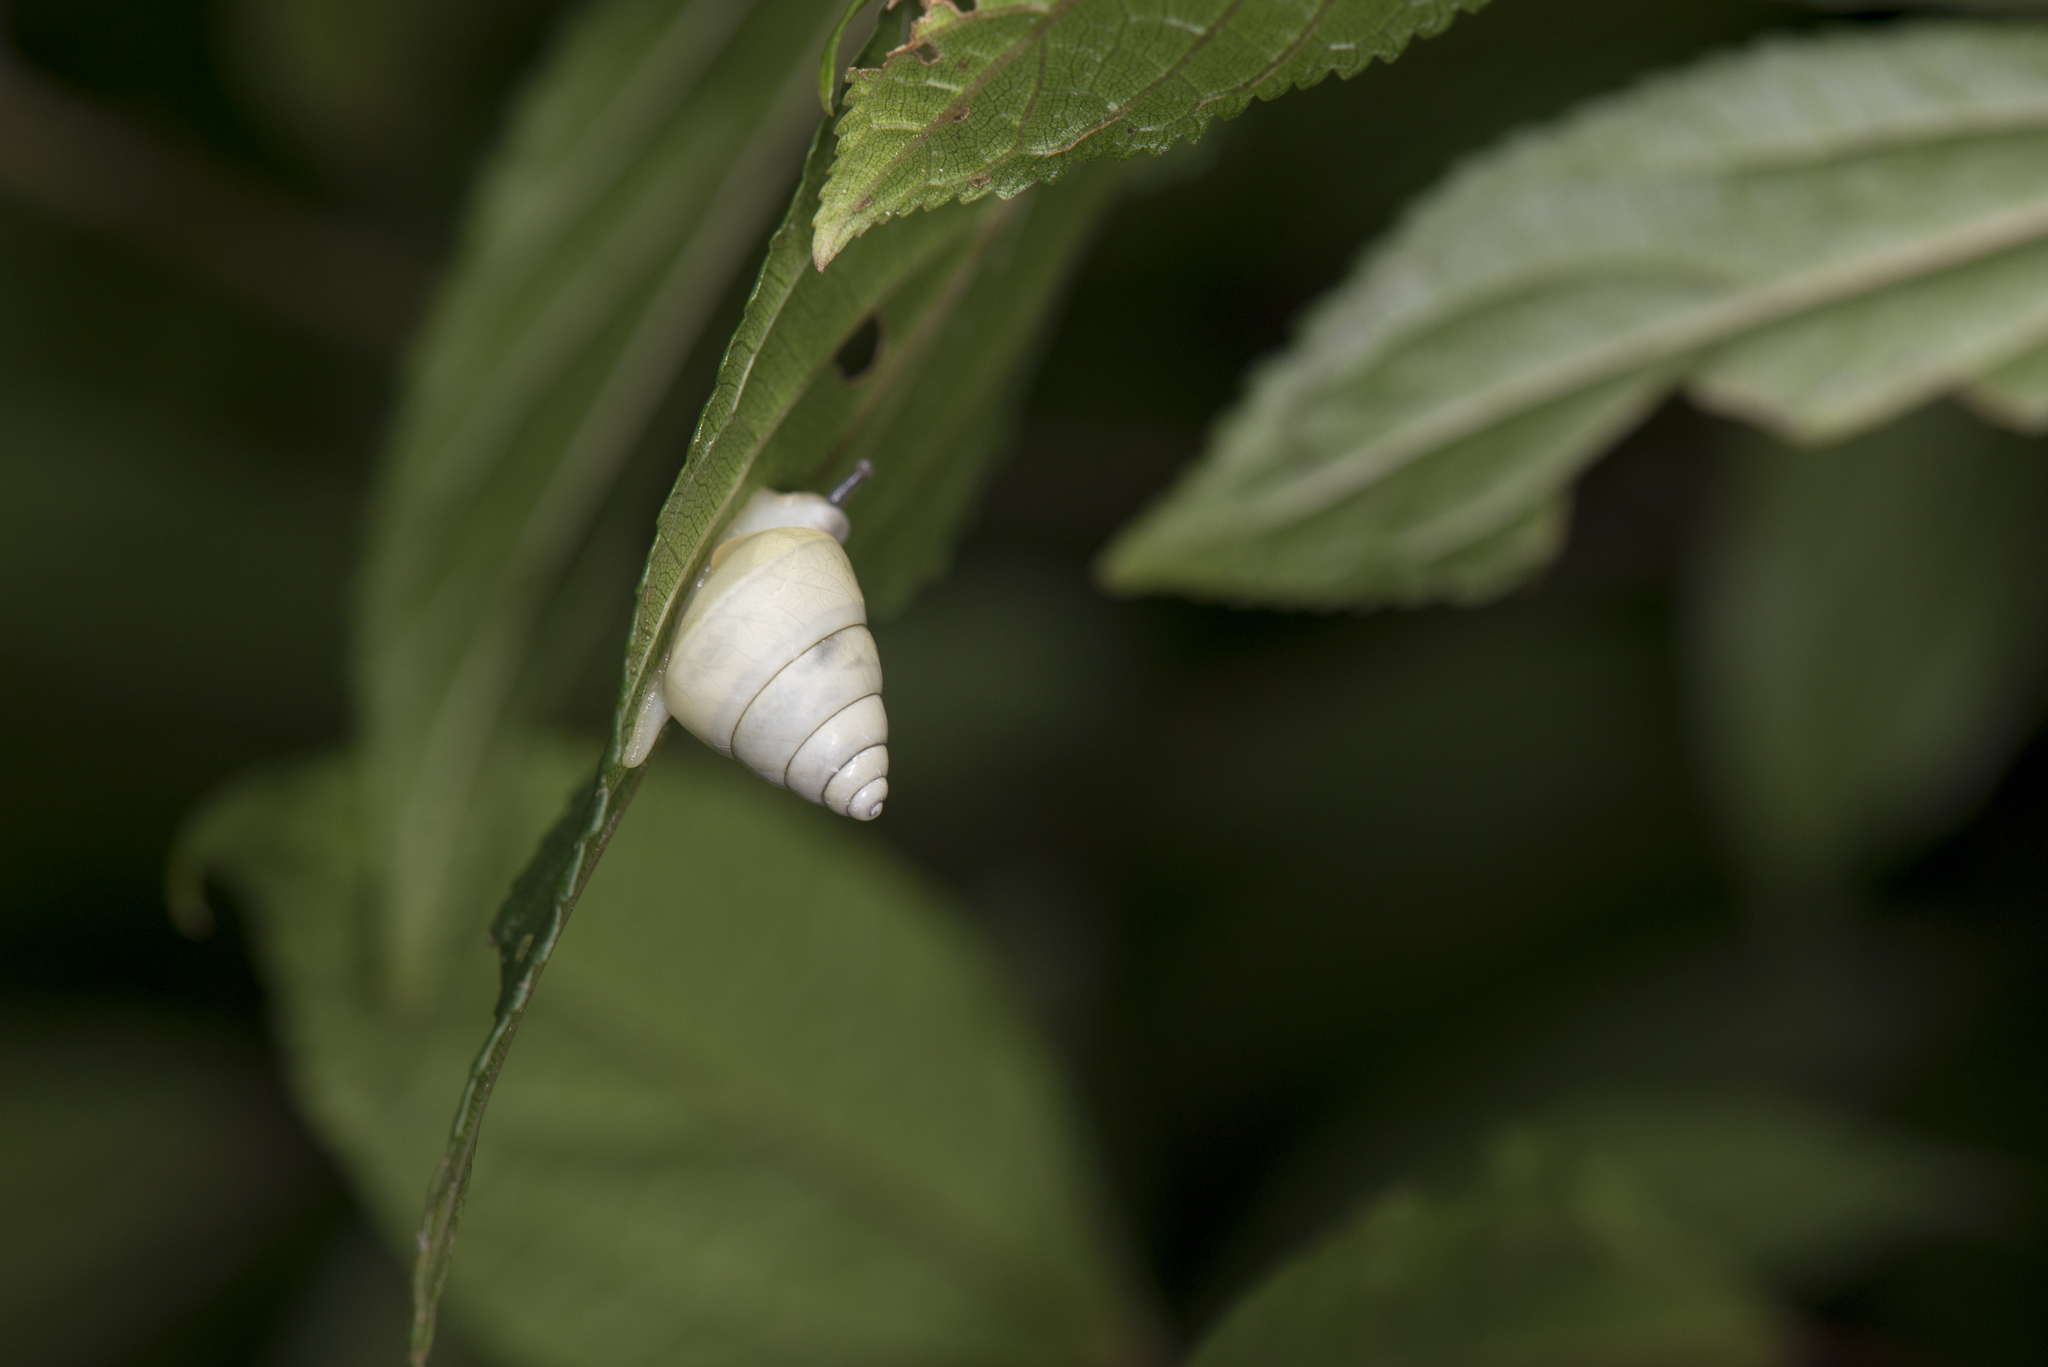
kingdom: Animalia
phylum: Mollusca
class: Gastropoda
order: Stylommatophora
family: Camaenidae
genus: Satsuma
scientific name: Satsuma viridibasis
